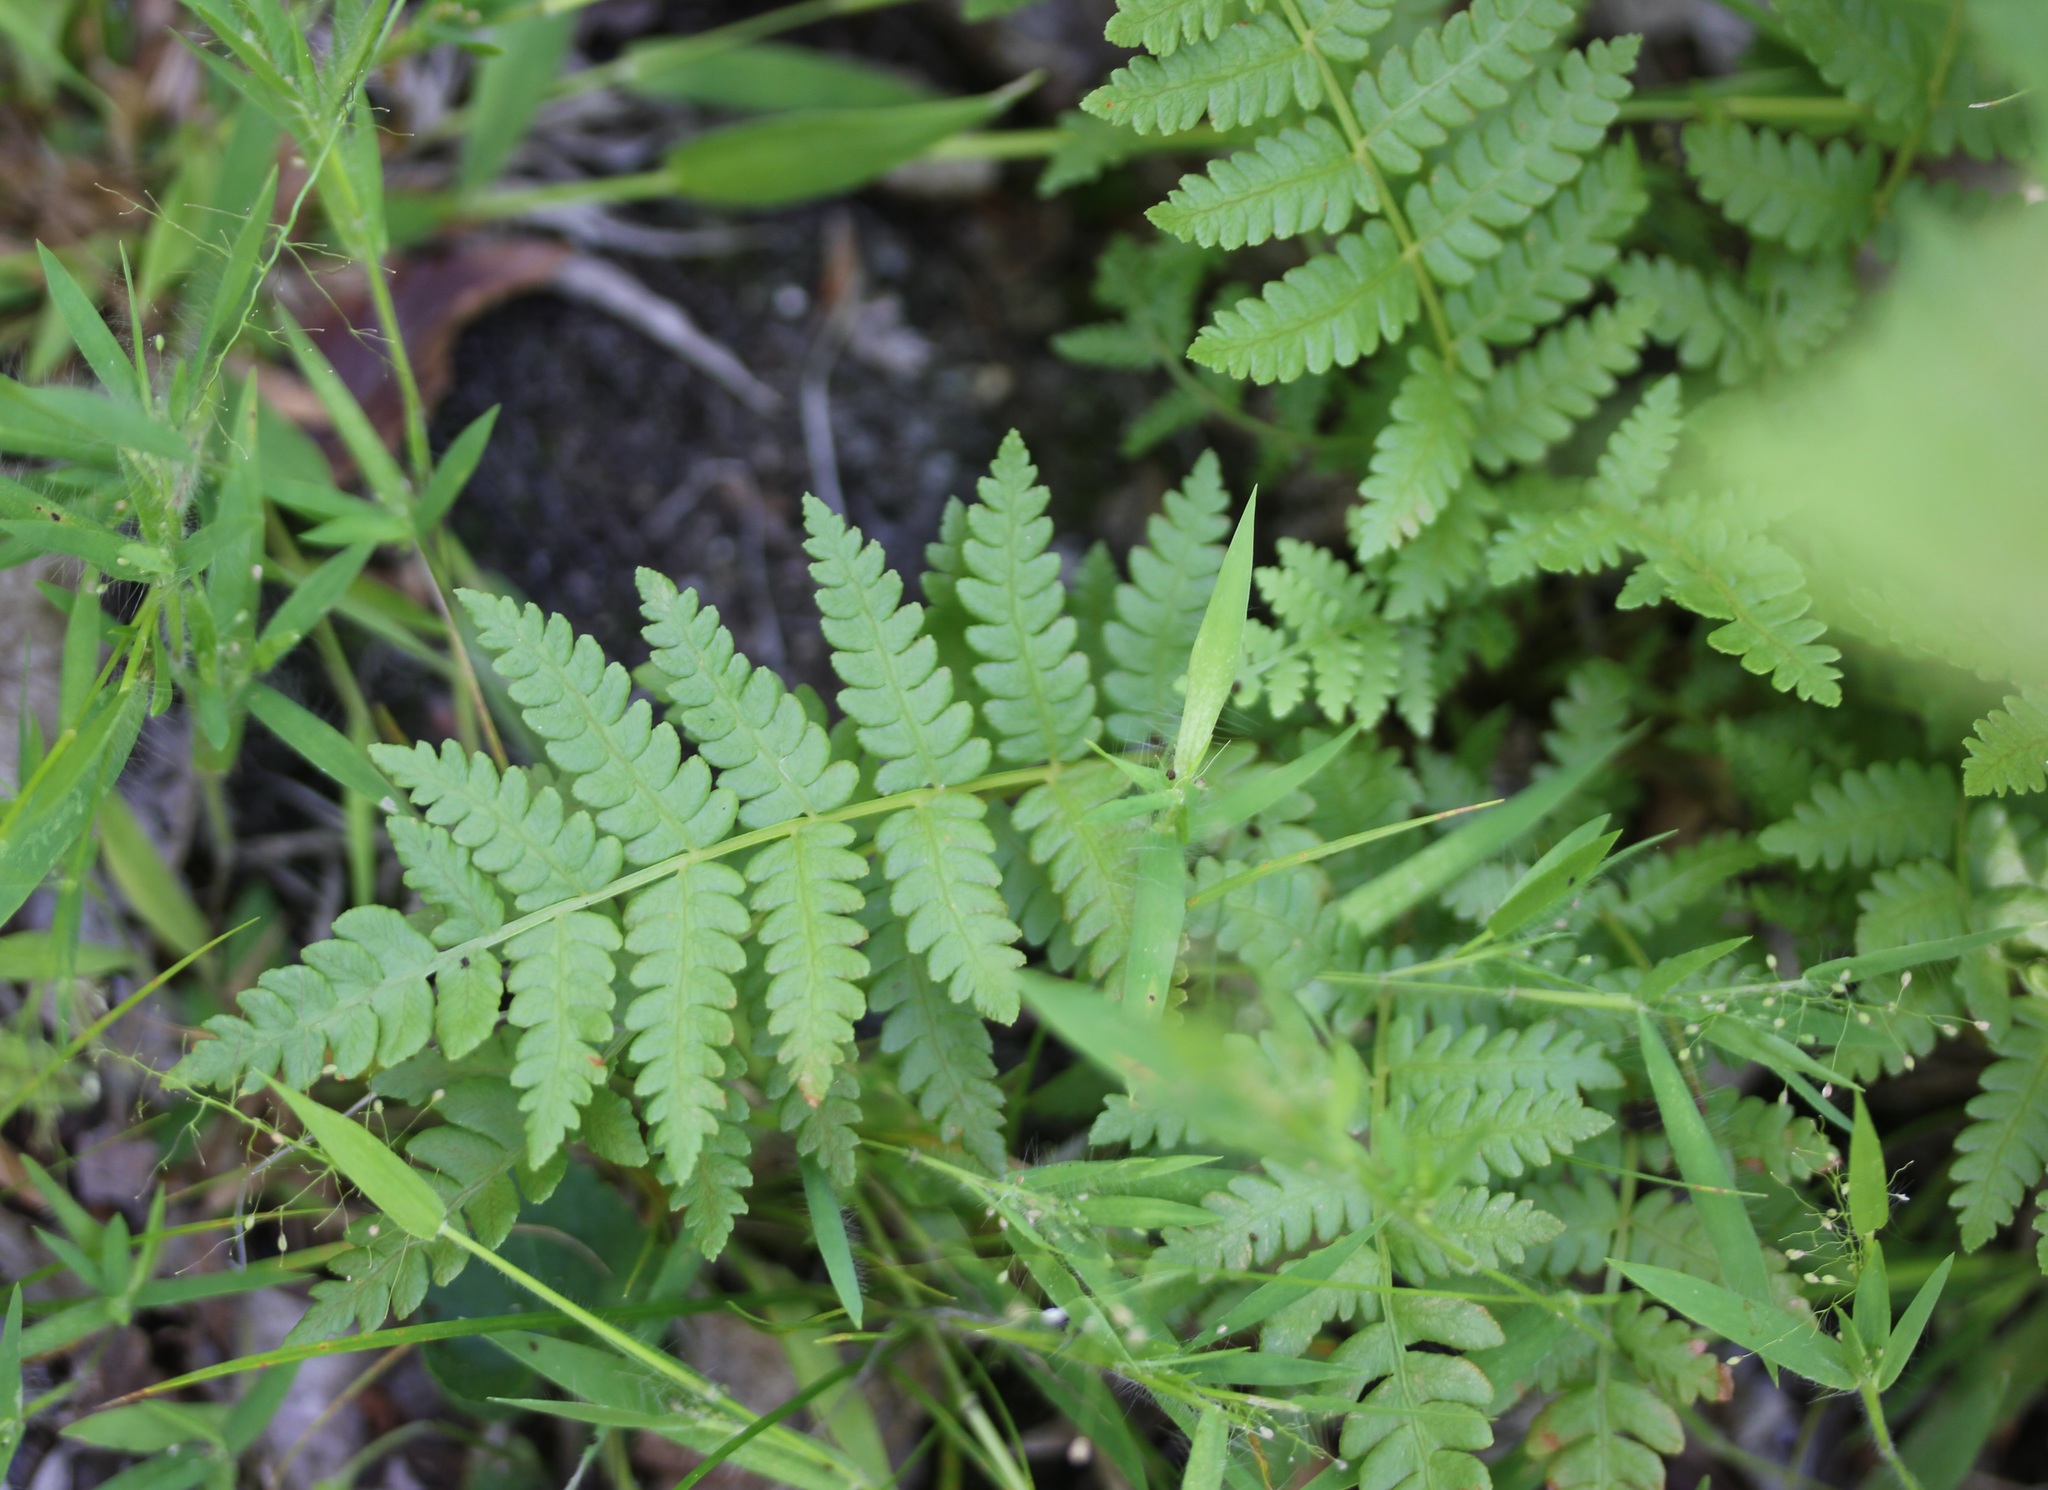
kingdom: Plantae
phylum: Tracheophyta
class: Polypodiopsida
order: Osmundales
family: Osmundaceae
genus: Osmundastrum
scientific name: Osmundastrum cinnamomeum
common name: Cinnamon fern
